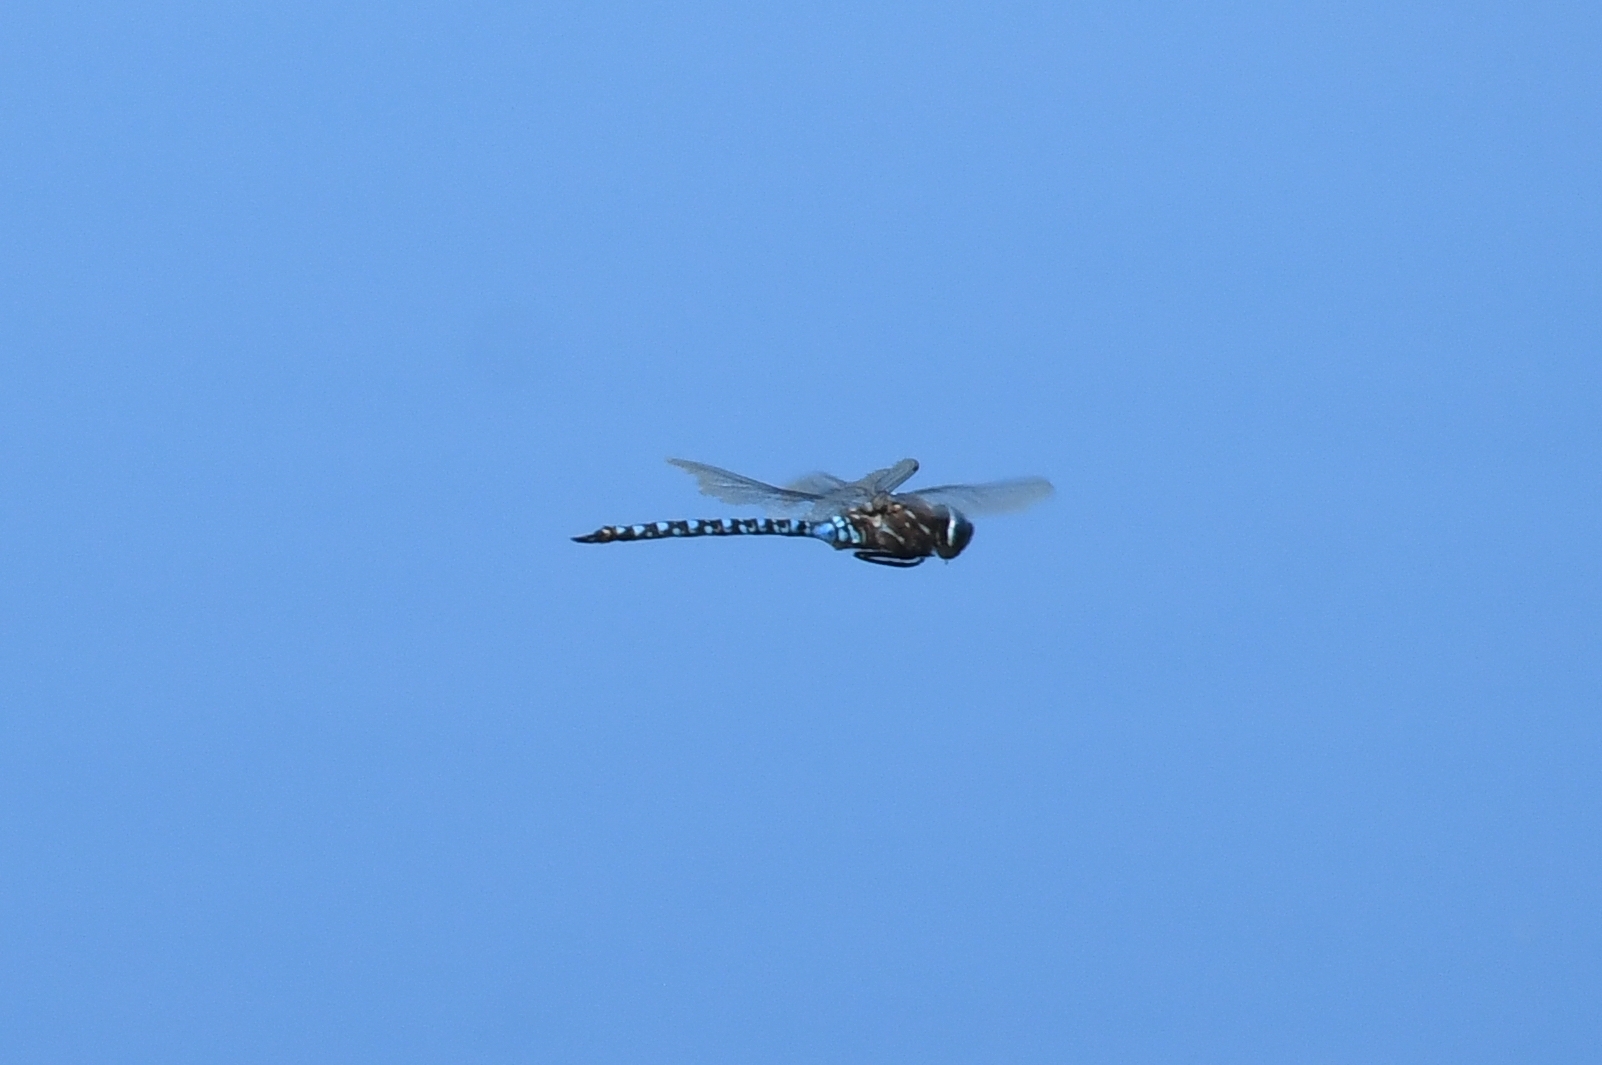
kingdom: Animalia
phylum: Arthropoda
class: Insecta
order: Odonata
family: Aeshnidae
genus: Aeshna
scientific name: Aeshna interrupta
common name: Variable darner
